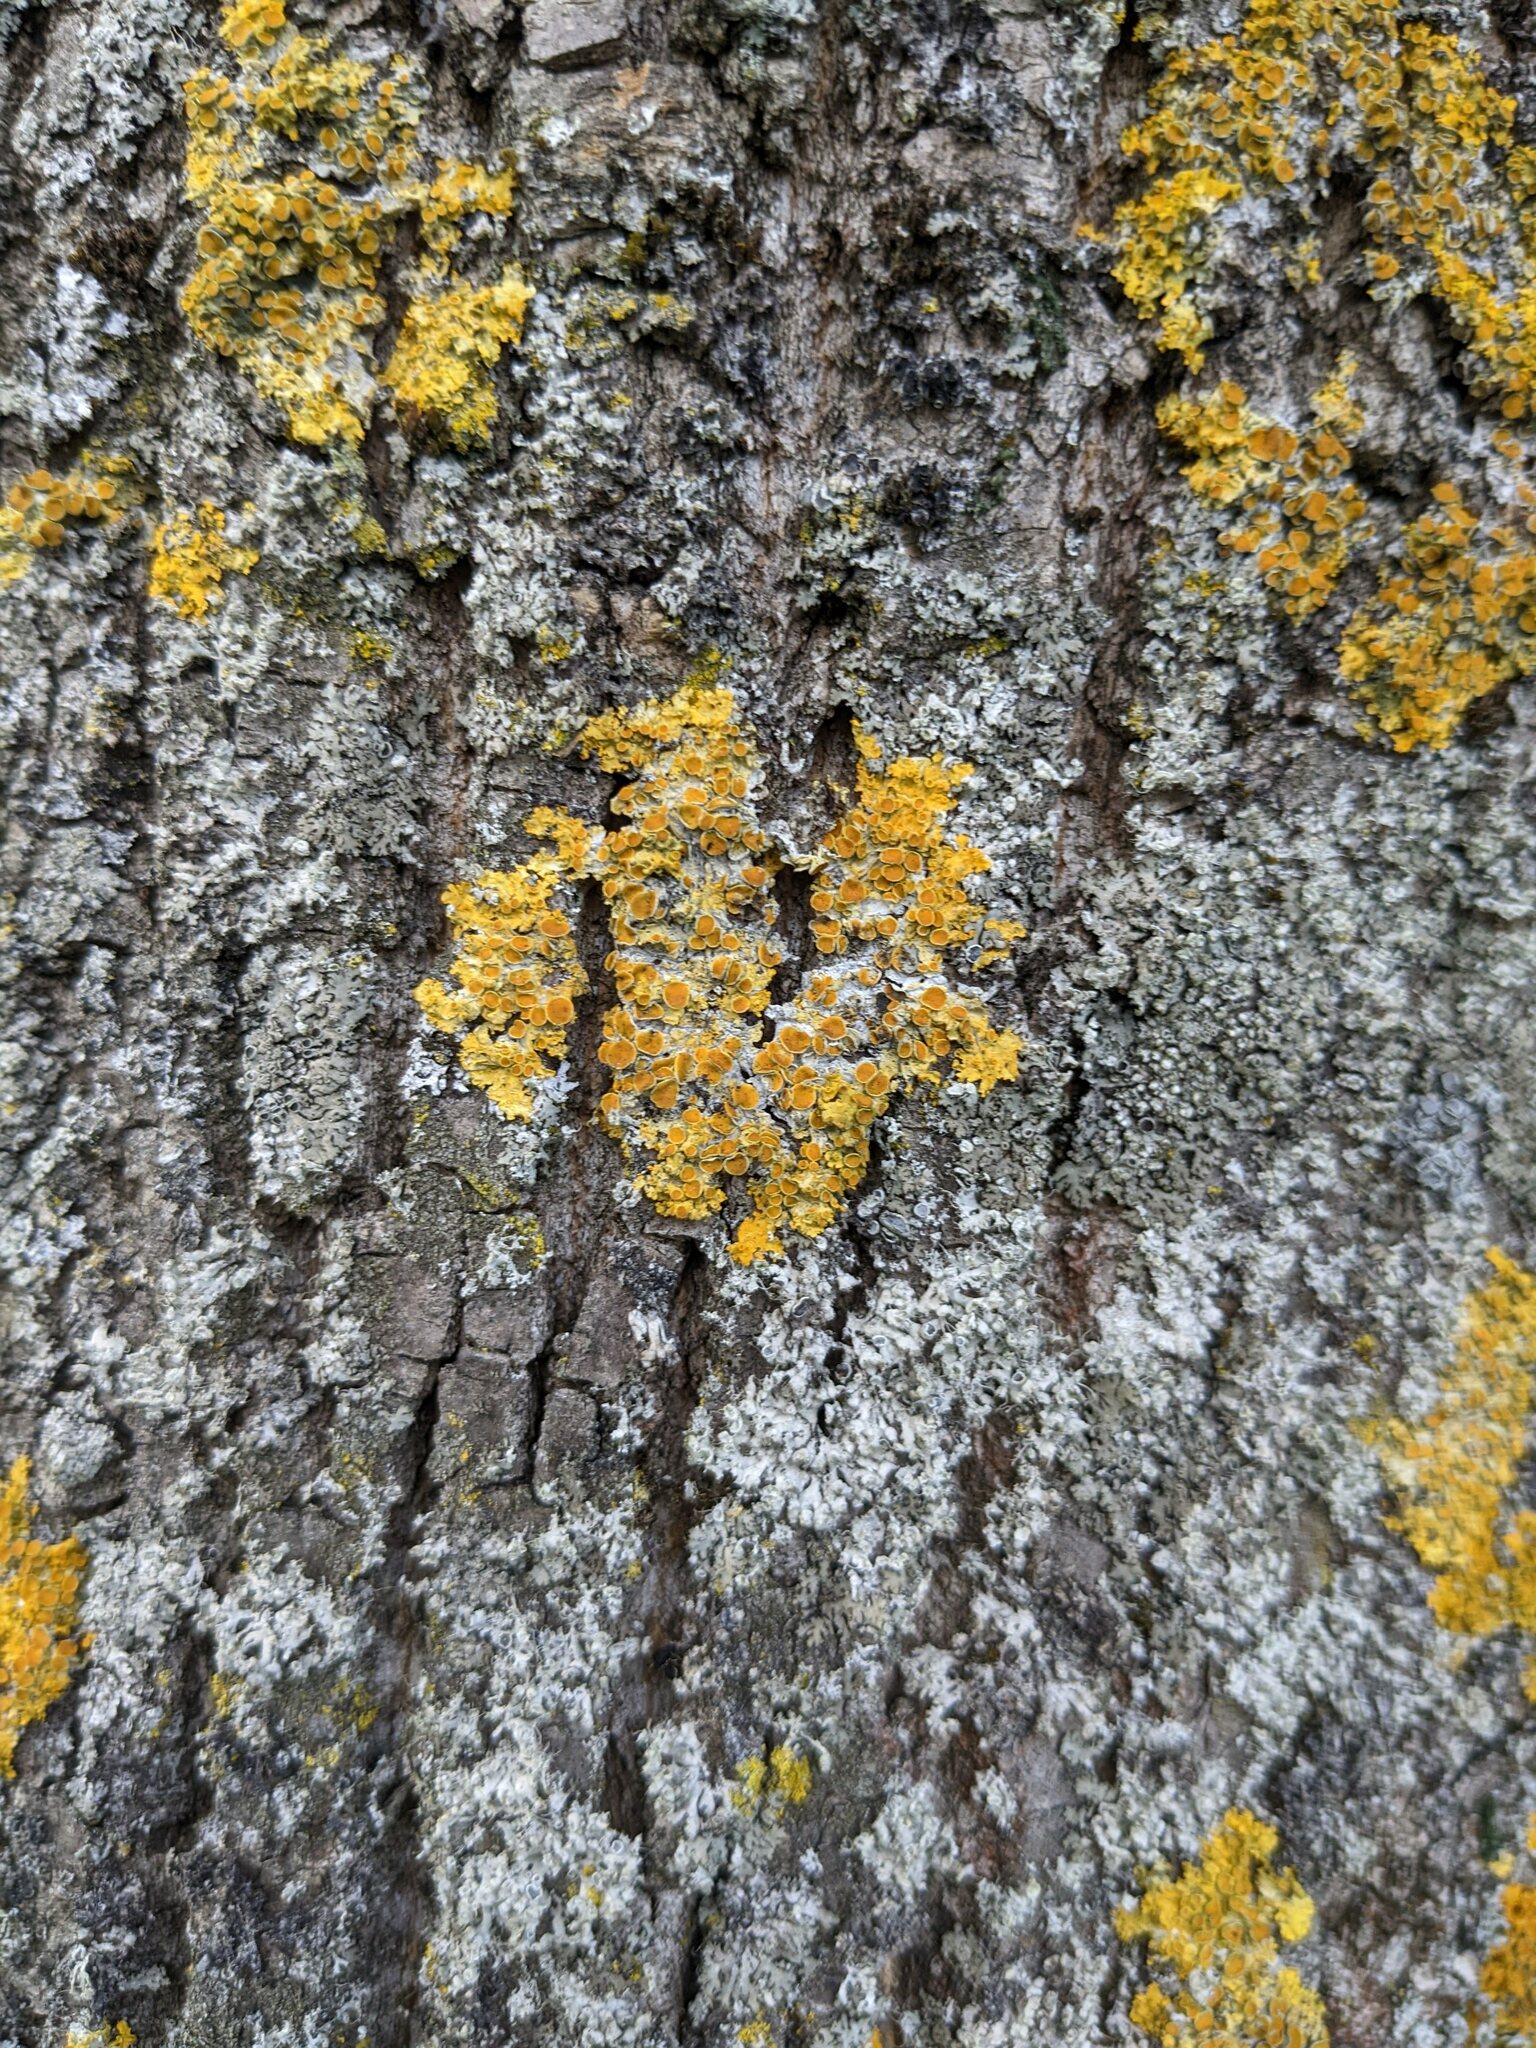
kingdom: Fungi
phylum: Ascomycota
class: Lecanoromycetes
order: Teloschistales
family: Teloschistaceae
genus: Xanthoria
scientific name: Xanthoria parietina
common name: Common orange lichen
